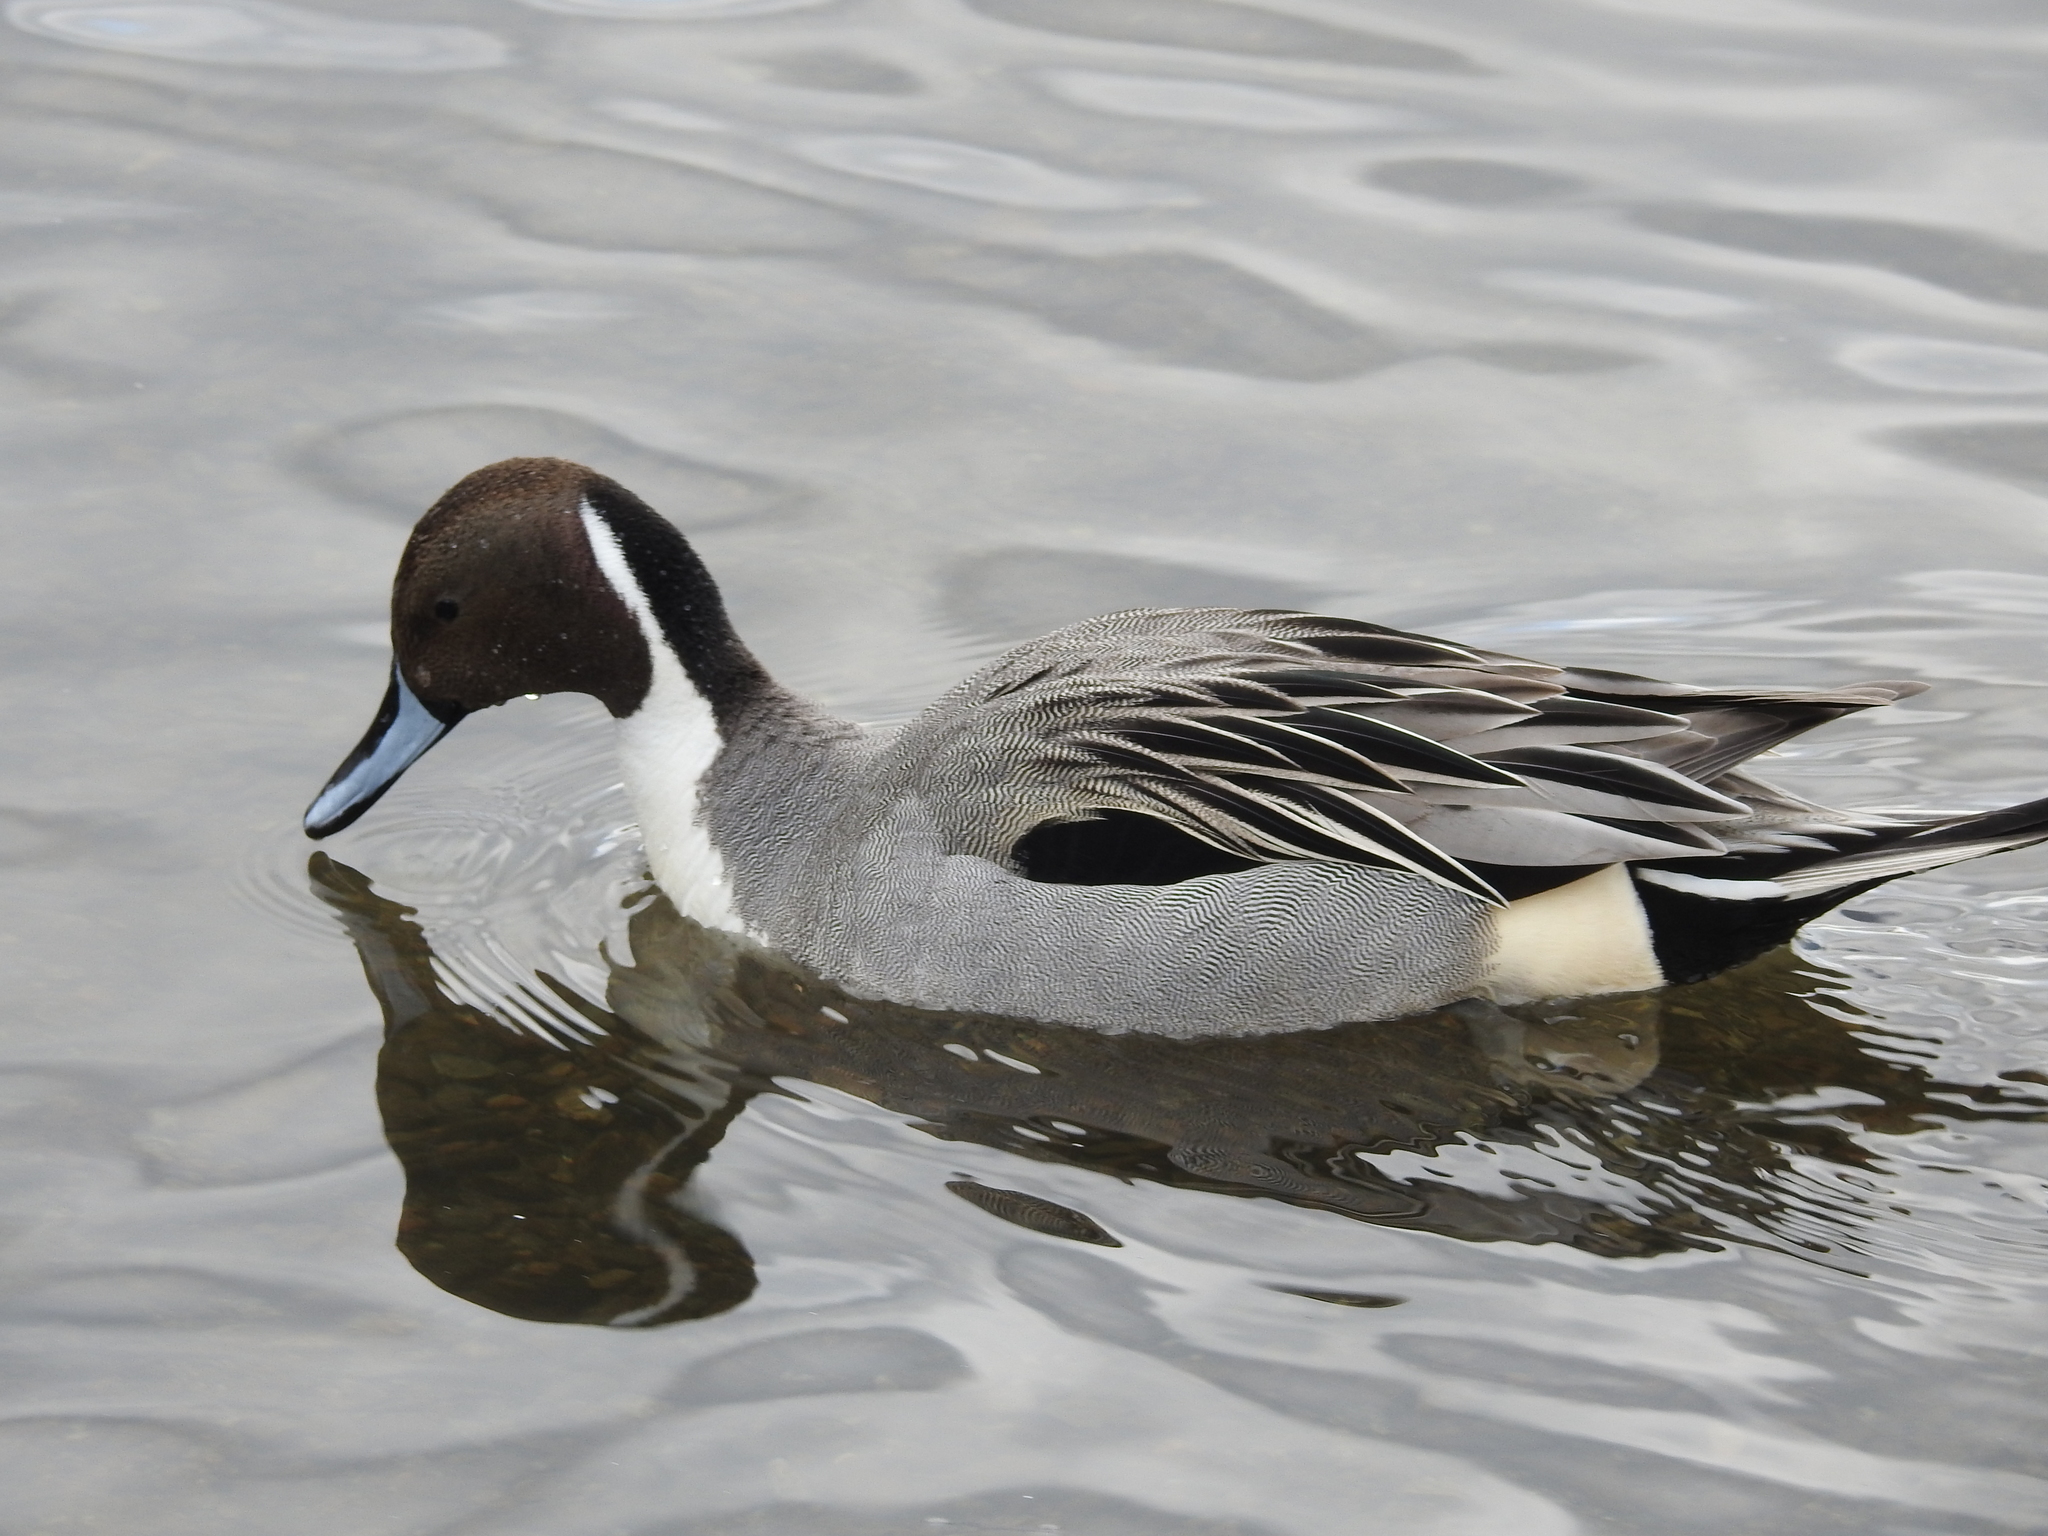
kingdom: Animalia
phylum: Chordata
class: Aves
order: Anseriformes
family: Anatidae
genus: Anas
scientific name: Anas acuta
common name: Northern pintail
